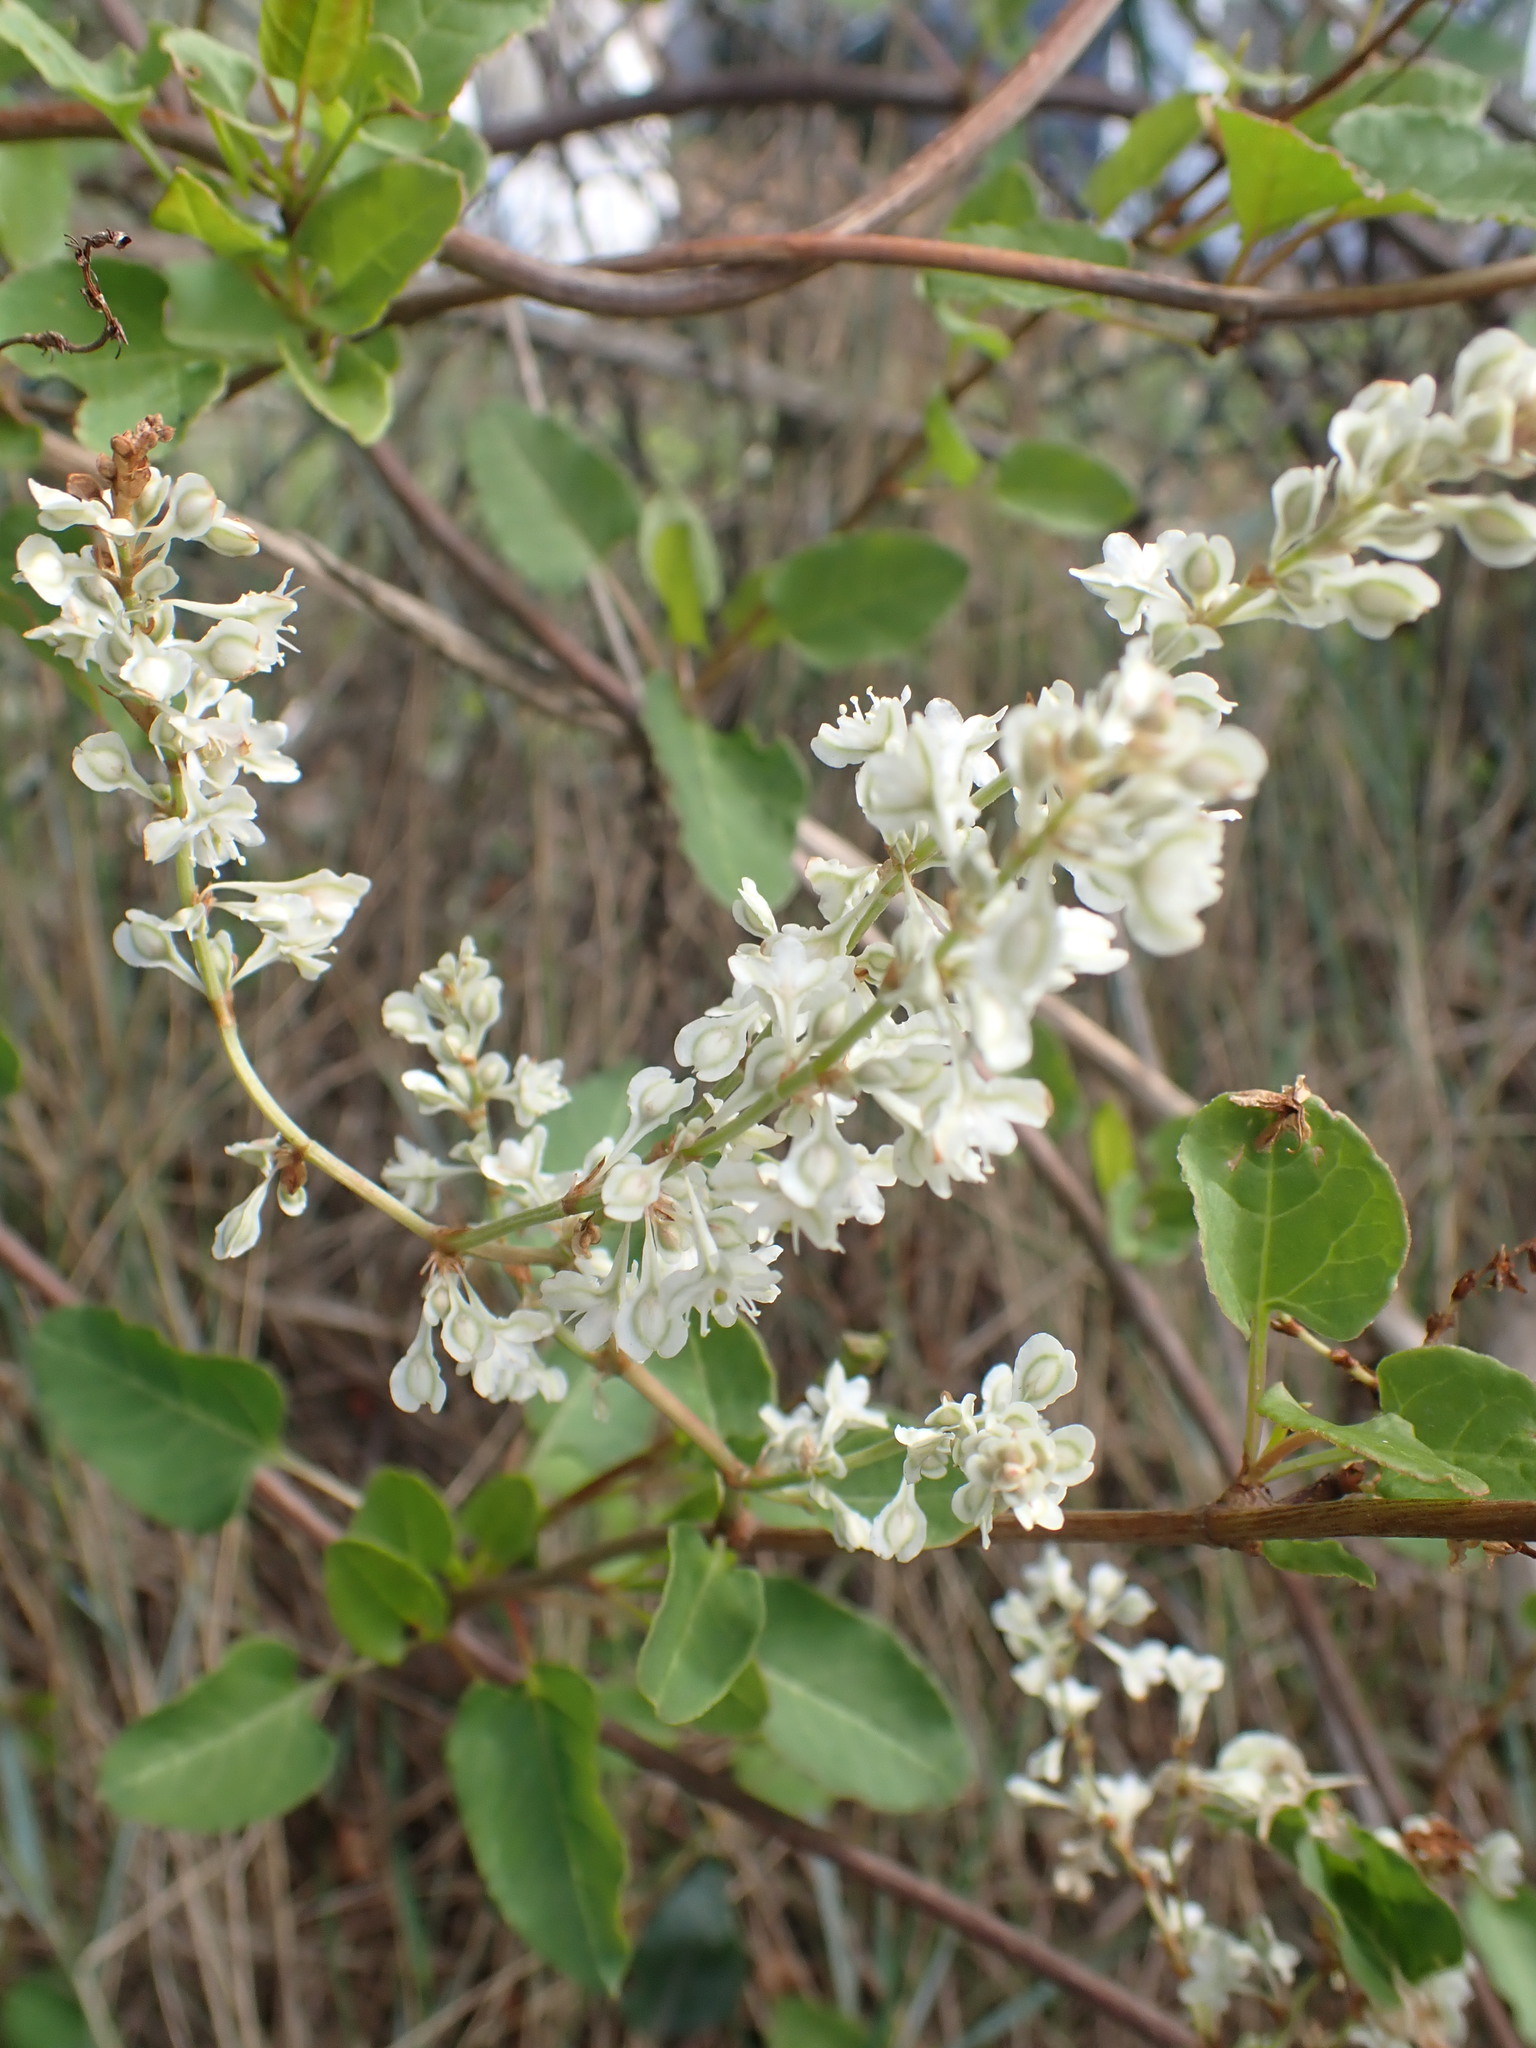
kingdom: Plantae
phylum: Tracheophyta
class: Magnoliopsida
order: Caryophyllales
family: Polygonaceae
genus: Fallopia
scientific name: Fallopia baldschuanica
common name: Russian-vine
